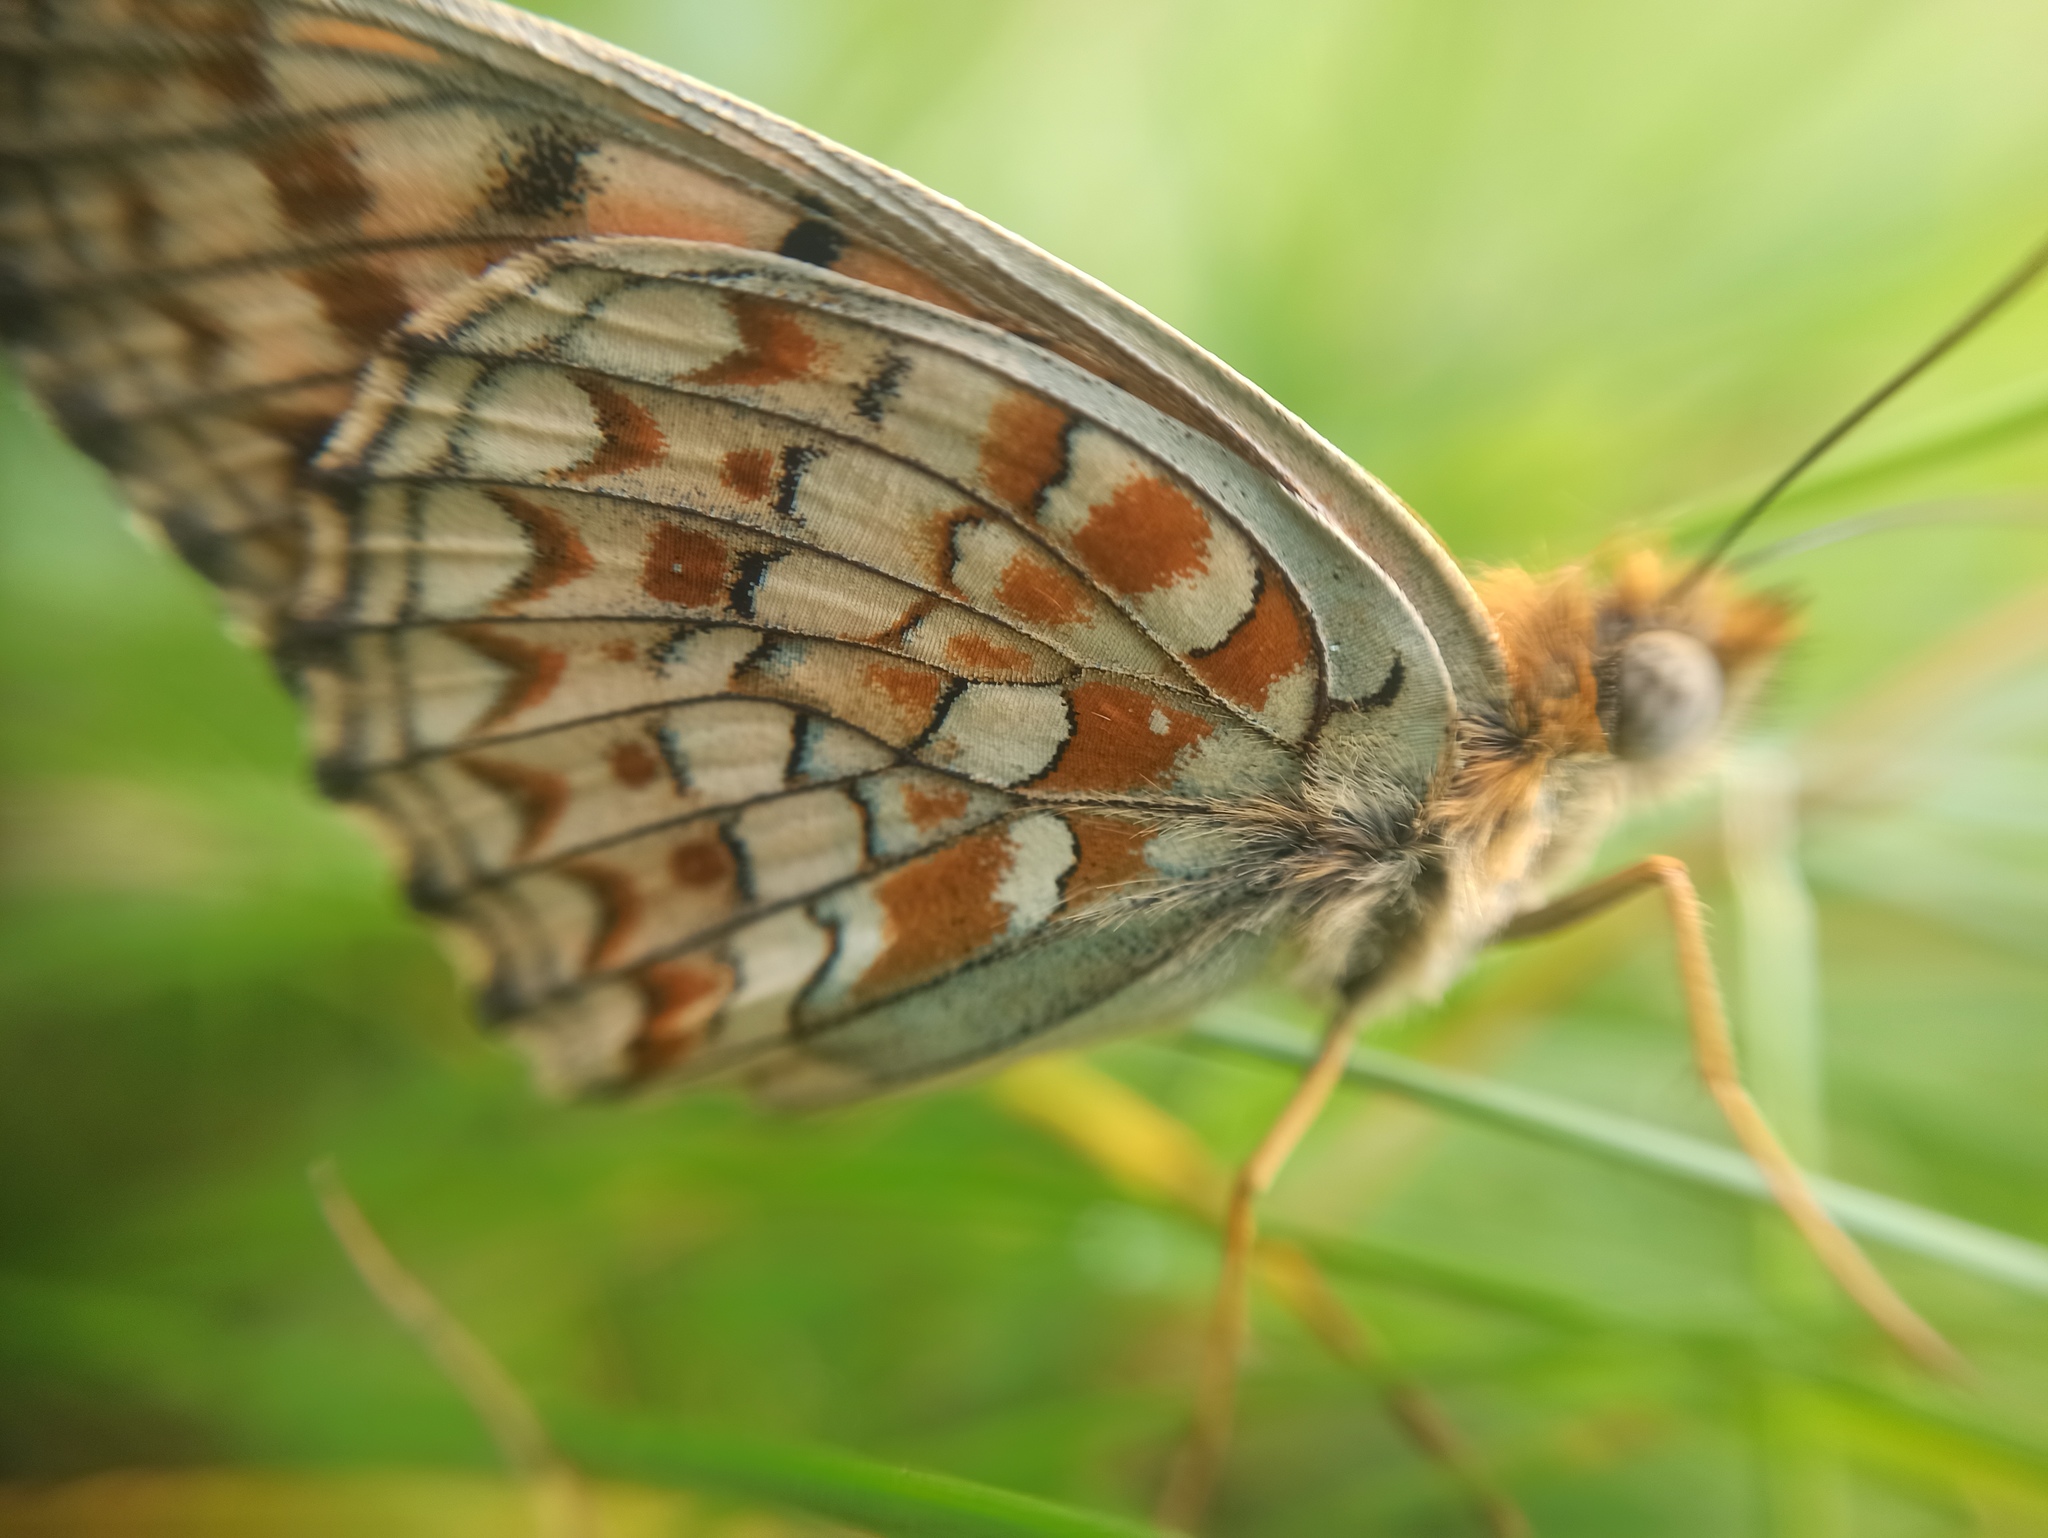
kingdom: Animalia
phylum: Arthropoda
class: Insecta
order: Lepidoptera
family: Nymphalidae
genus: Fabriciana
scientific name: Fabriciana niobe
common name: Niobe fritillary
